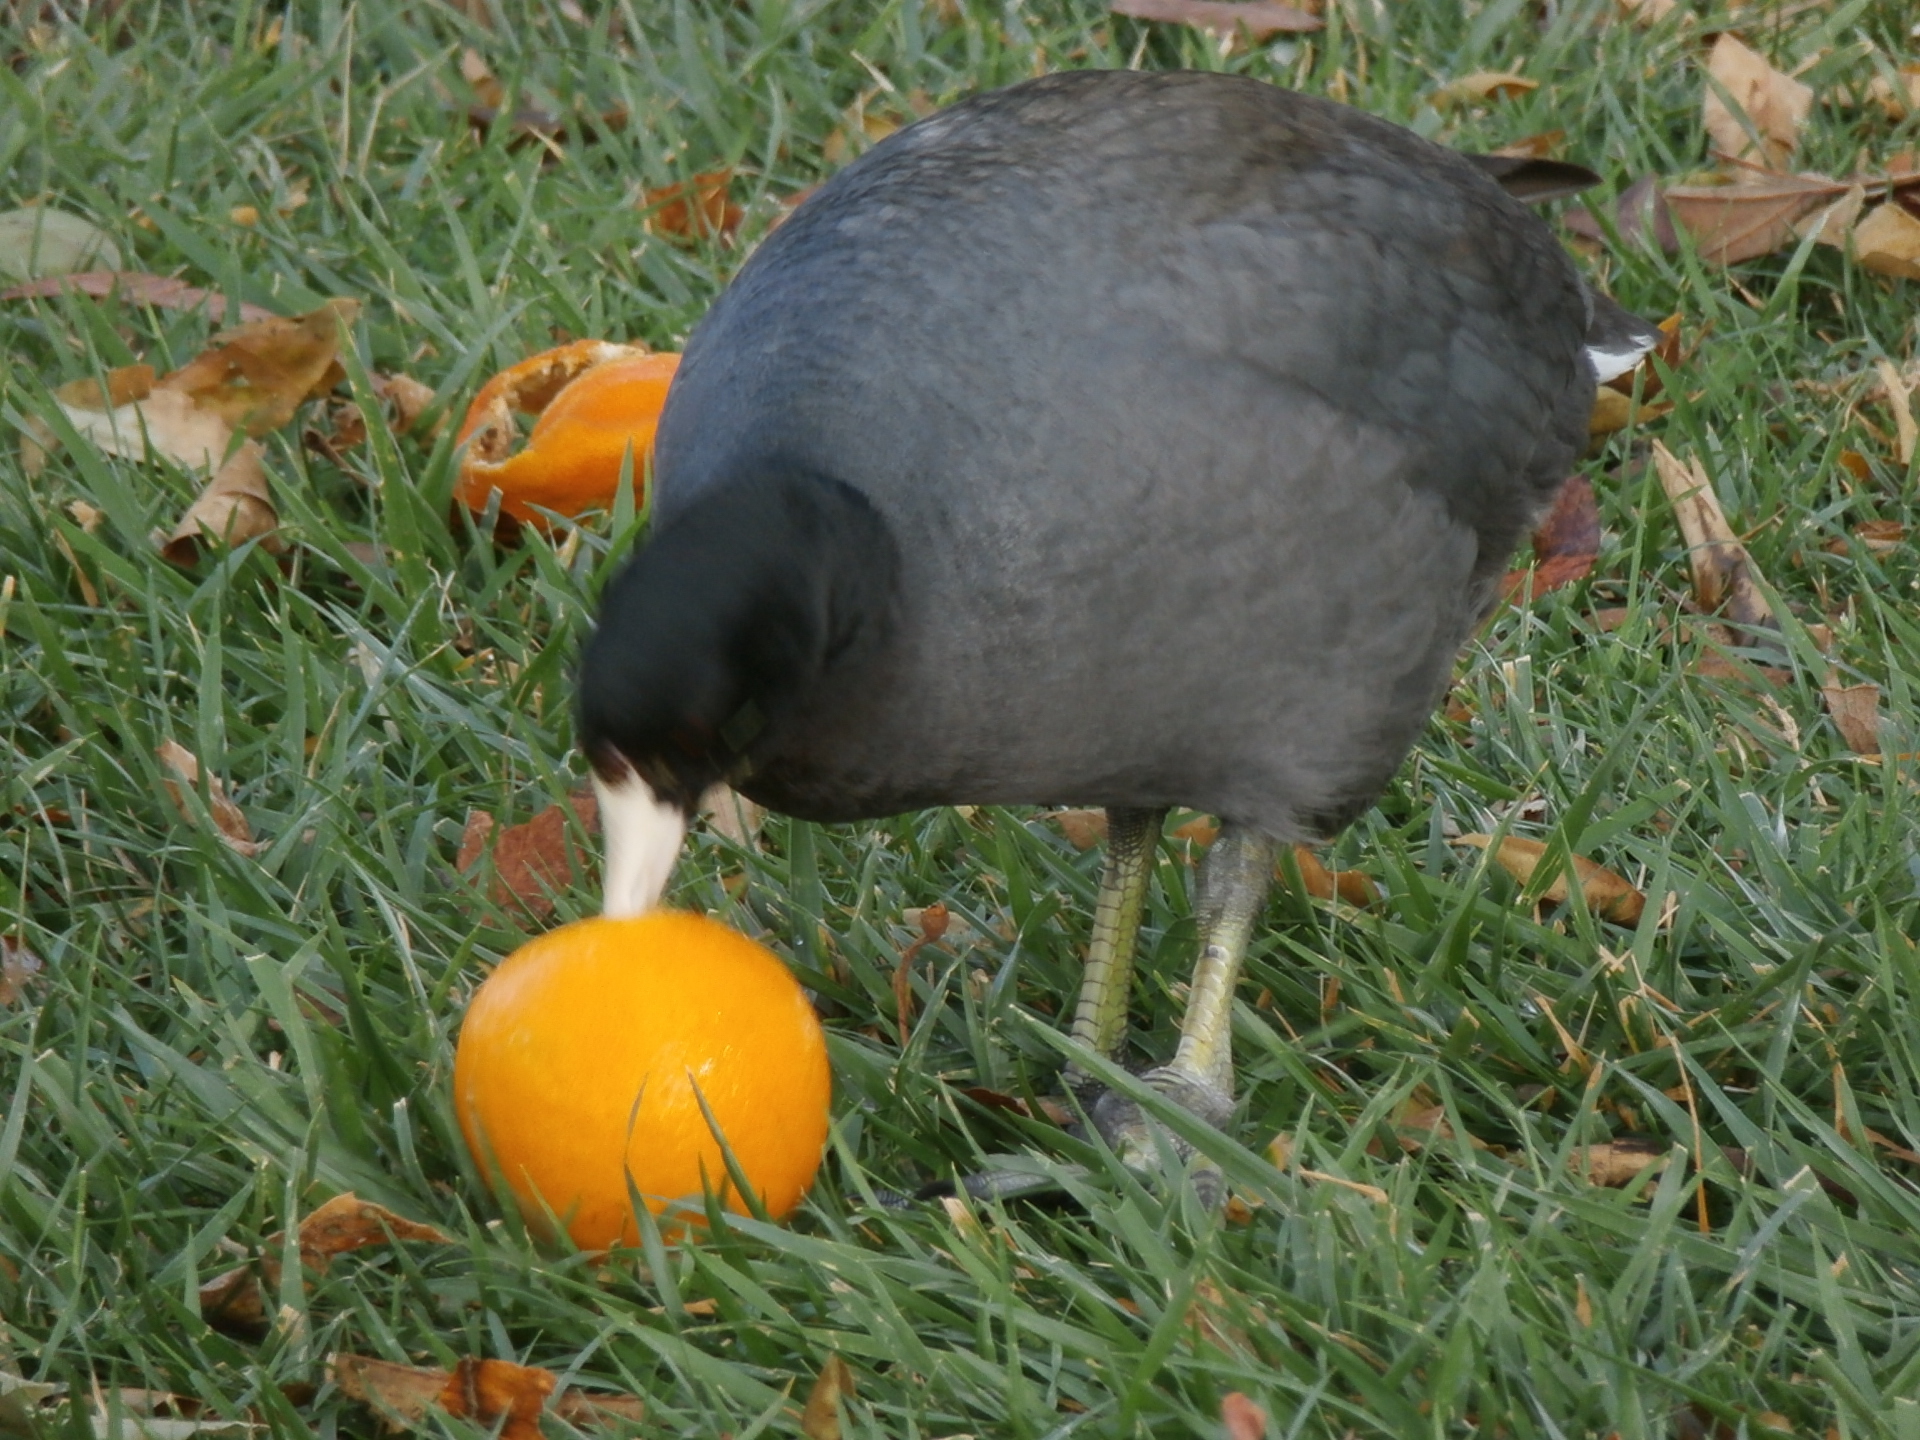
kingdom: Animalia
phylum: Chordata
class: Aves
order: Gruiformes
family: Rallidae
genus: Fulica
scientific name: Fulica americana
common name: American coot
